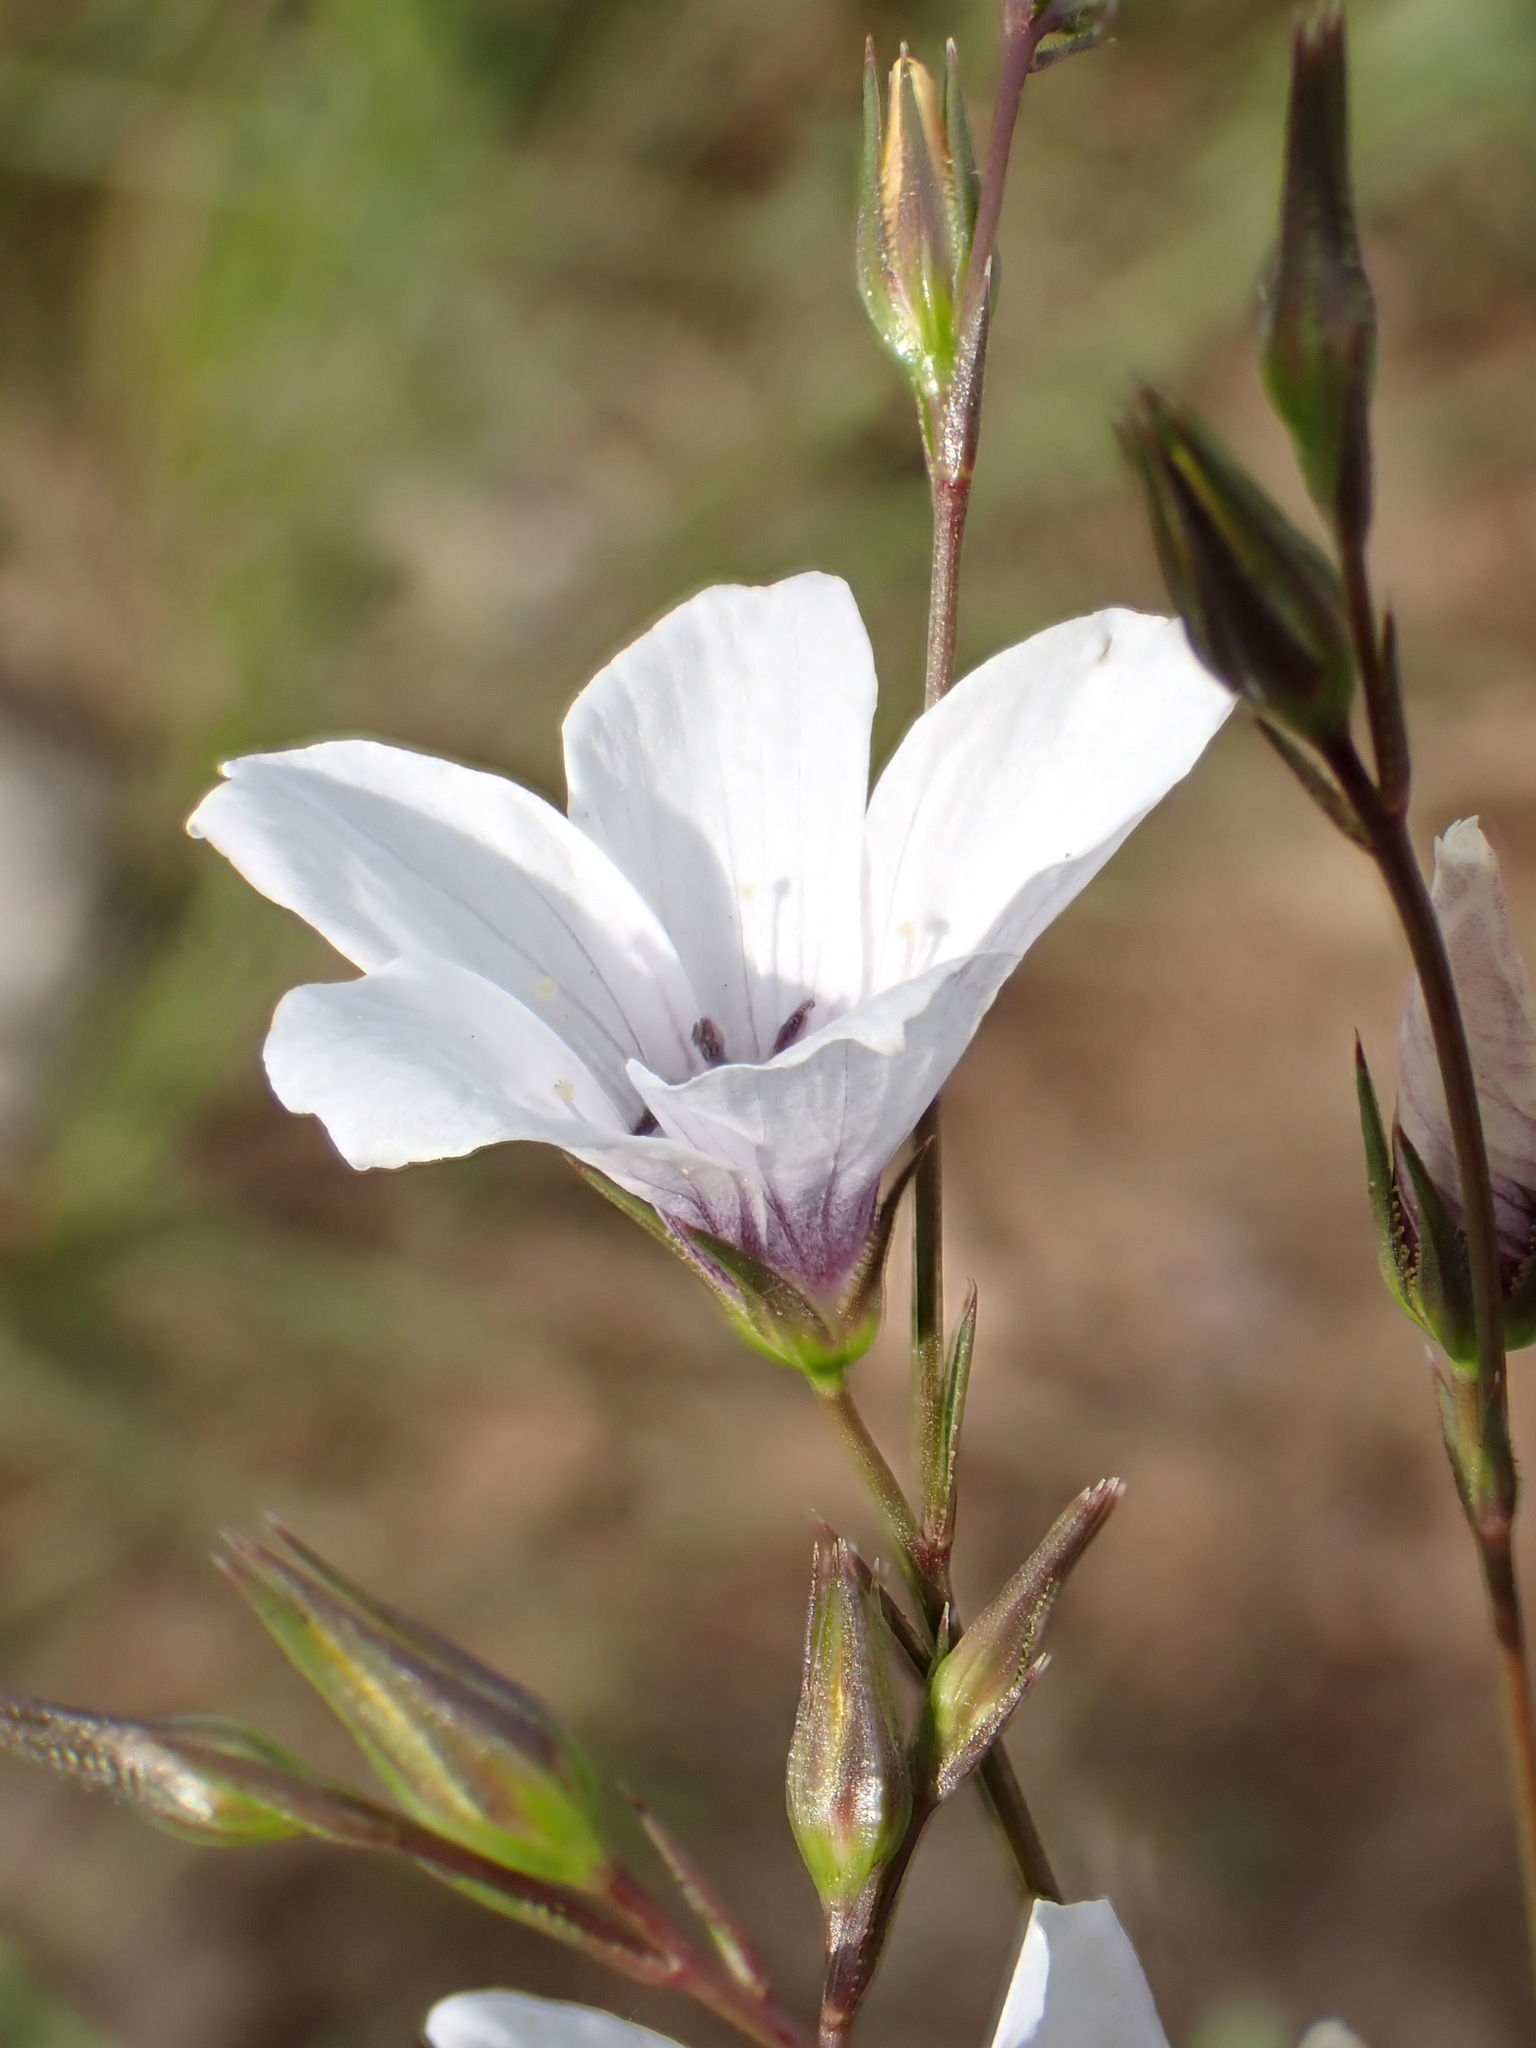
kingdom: Plantae
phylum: Tracheophyta
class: Magnoliopsida
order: Malpighiales
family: Linaceae
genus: Linum
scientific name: Linum tenuifolium
